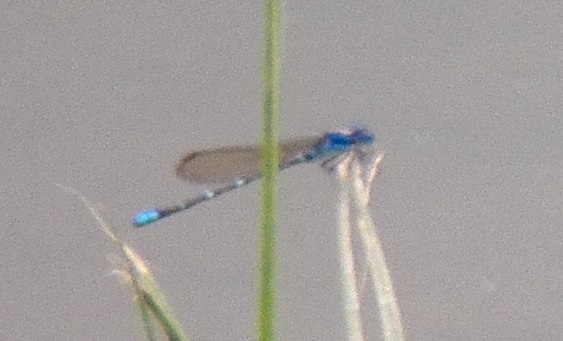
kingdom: Animalia
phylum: Arthropoda
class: Insecta
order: Odonata
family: Coenagrionidae
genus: Argia
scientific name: Argia sedula
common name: Blue-ringed dancer
